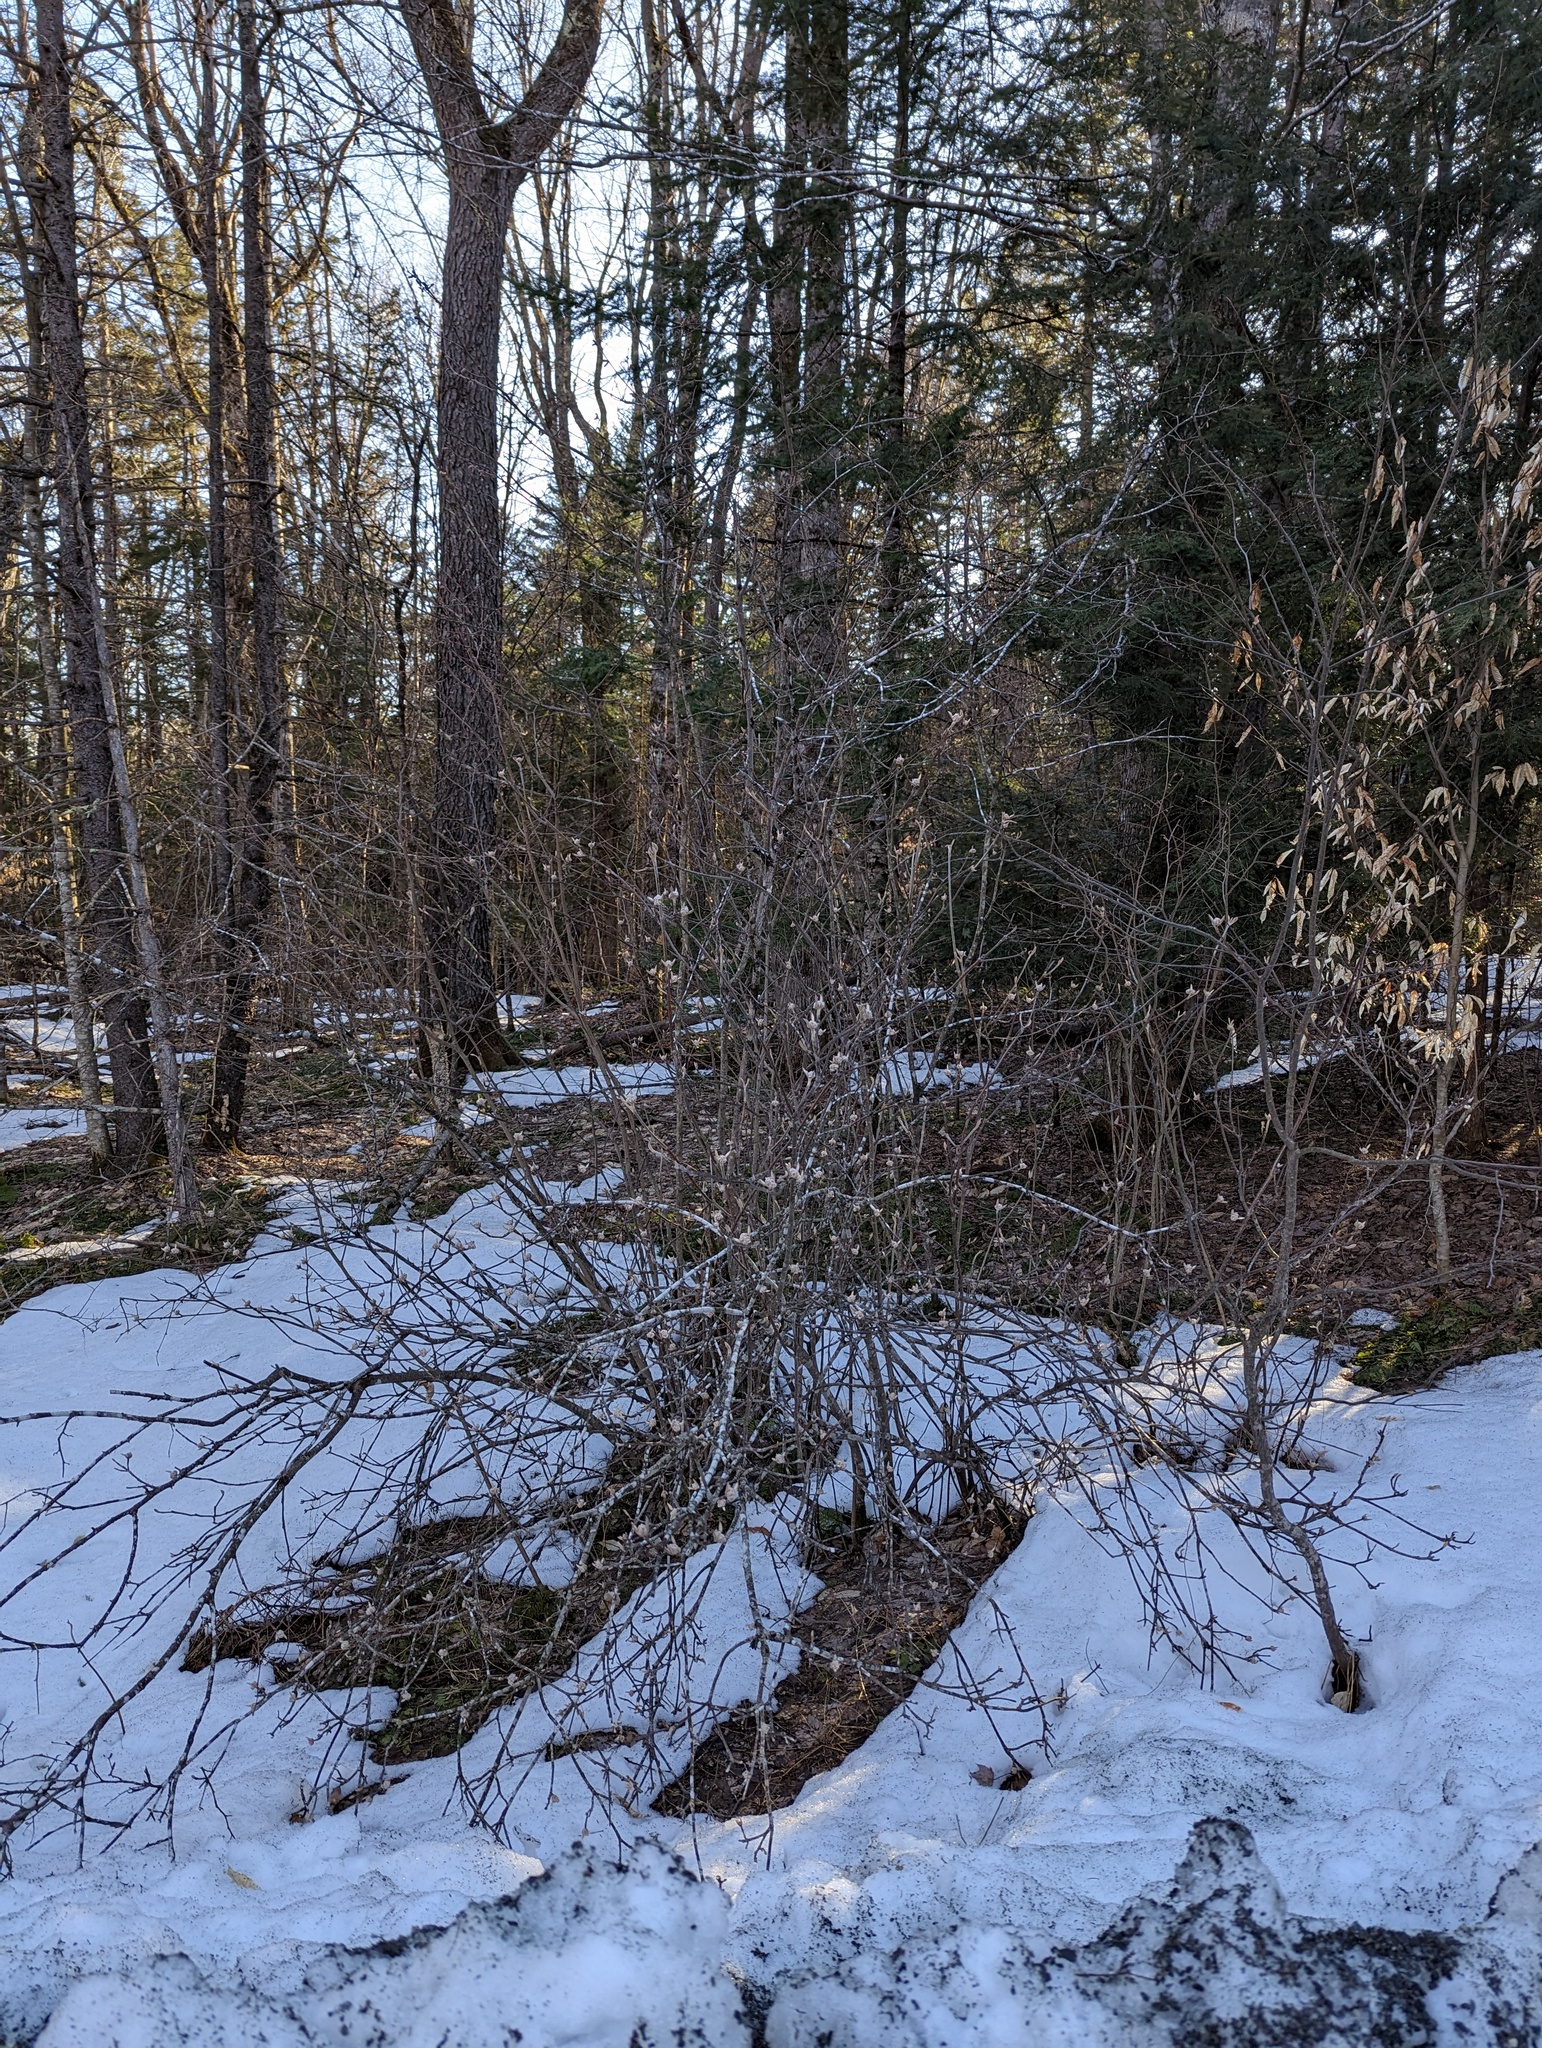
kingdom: Plantae
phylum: Tracheophyta
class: Magnoliopsida
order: Dipsacales
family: Viburnaceae
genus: Viburnum
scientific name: Viburnum lantanoides
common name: Hobblebush
